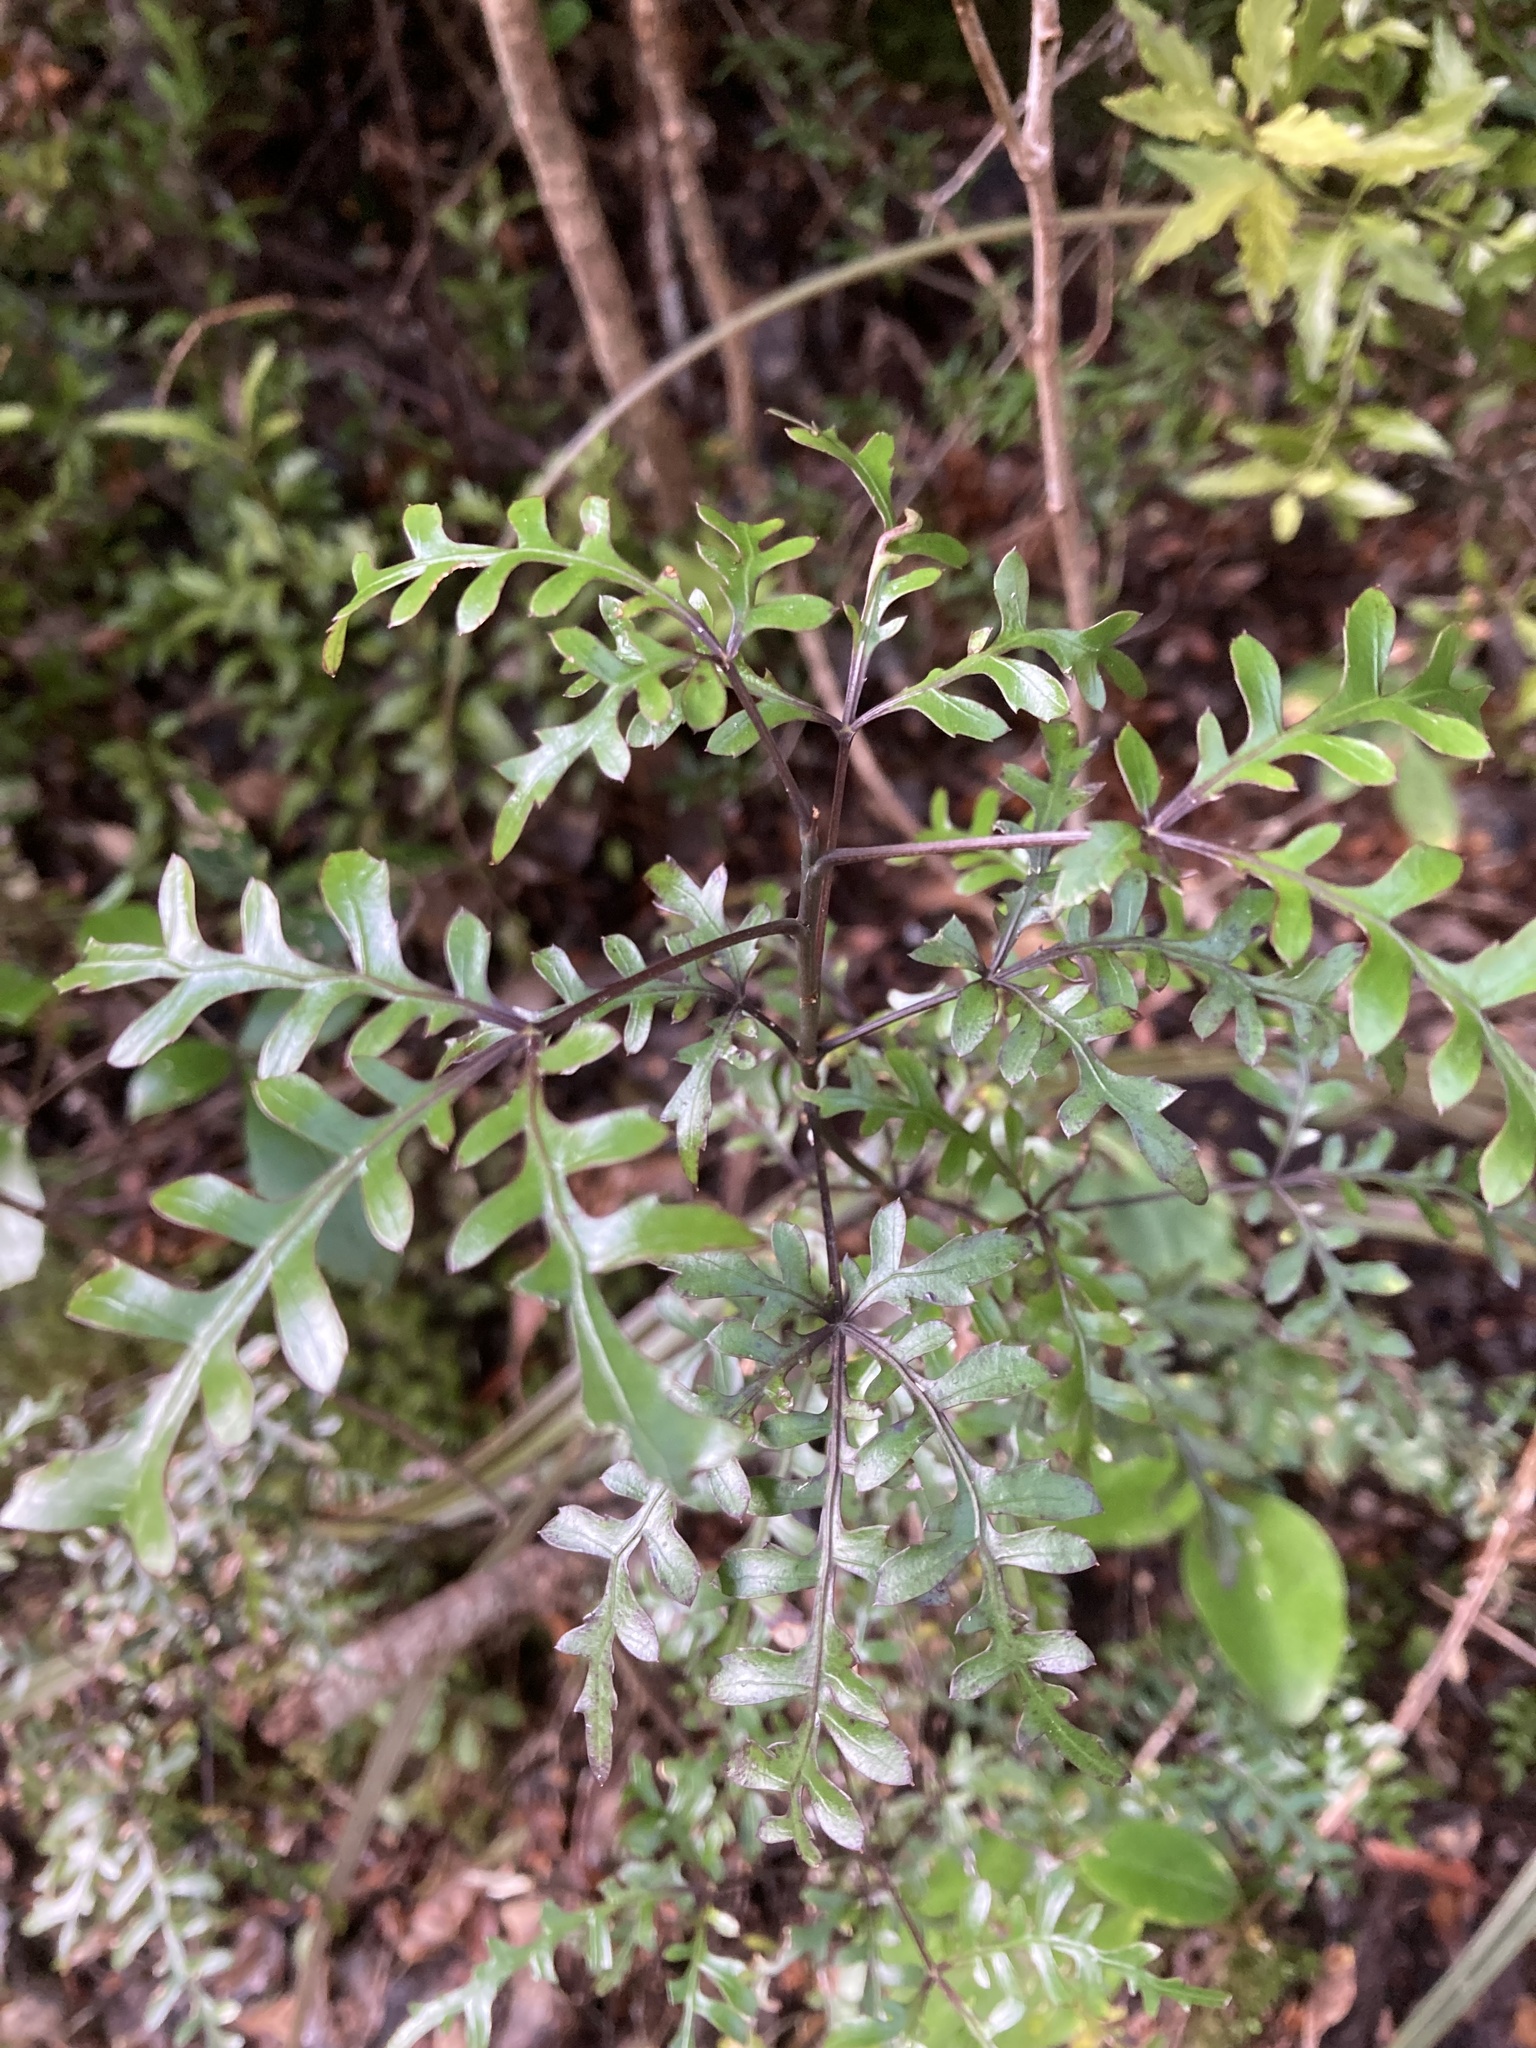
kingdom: Plantae
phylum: Tracheophyta
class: Magnoliopsida
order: Apiales
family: Araliaceae
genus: Raukaua
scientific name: Raukaua simplex
